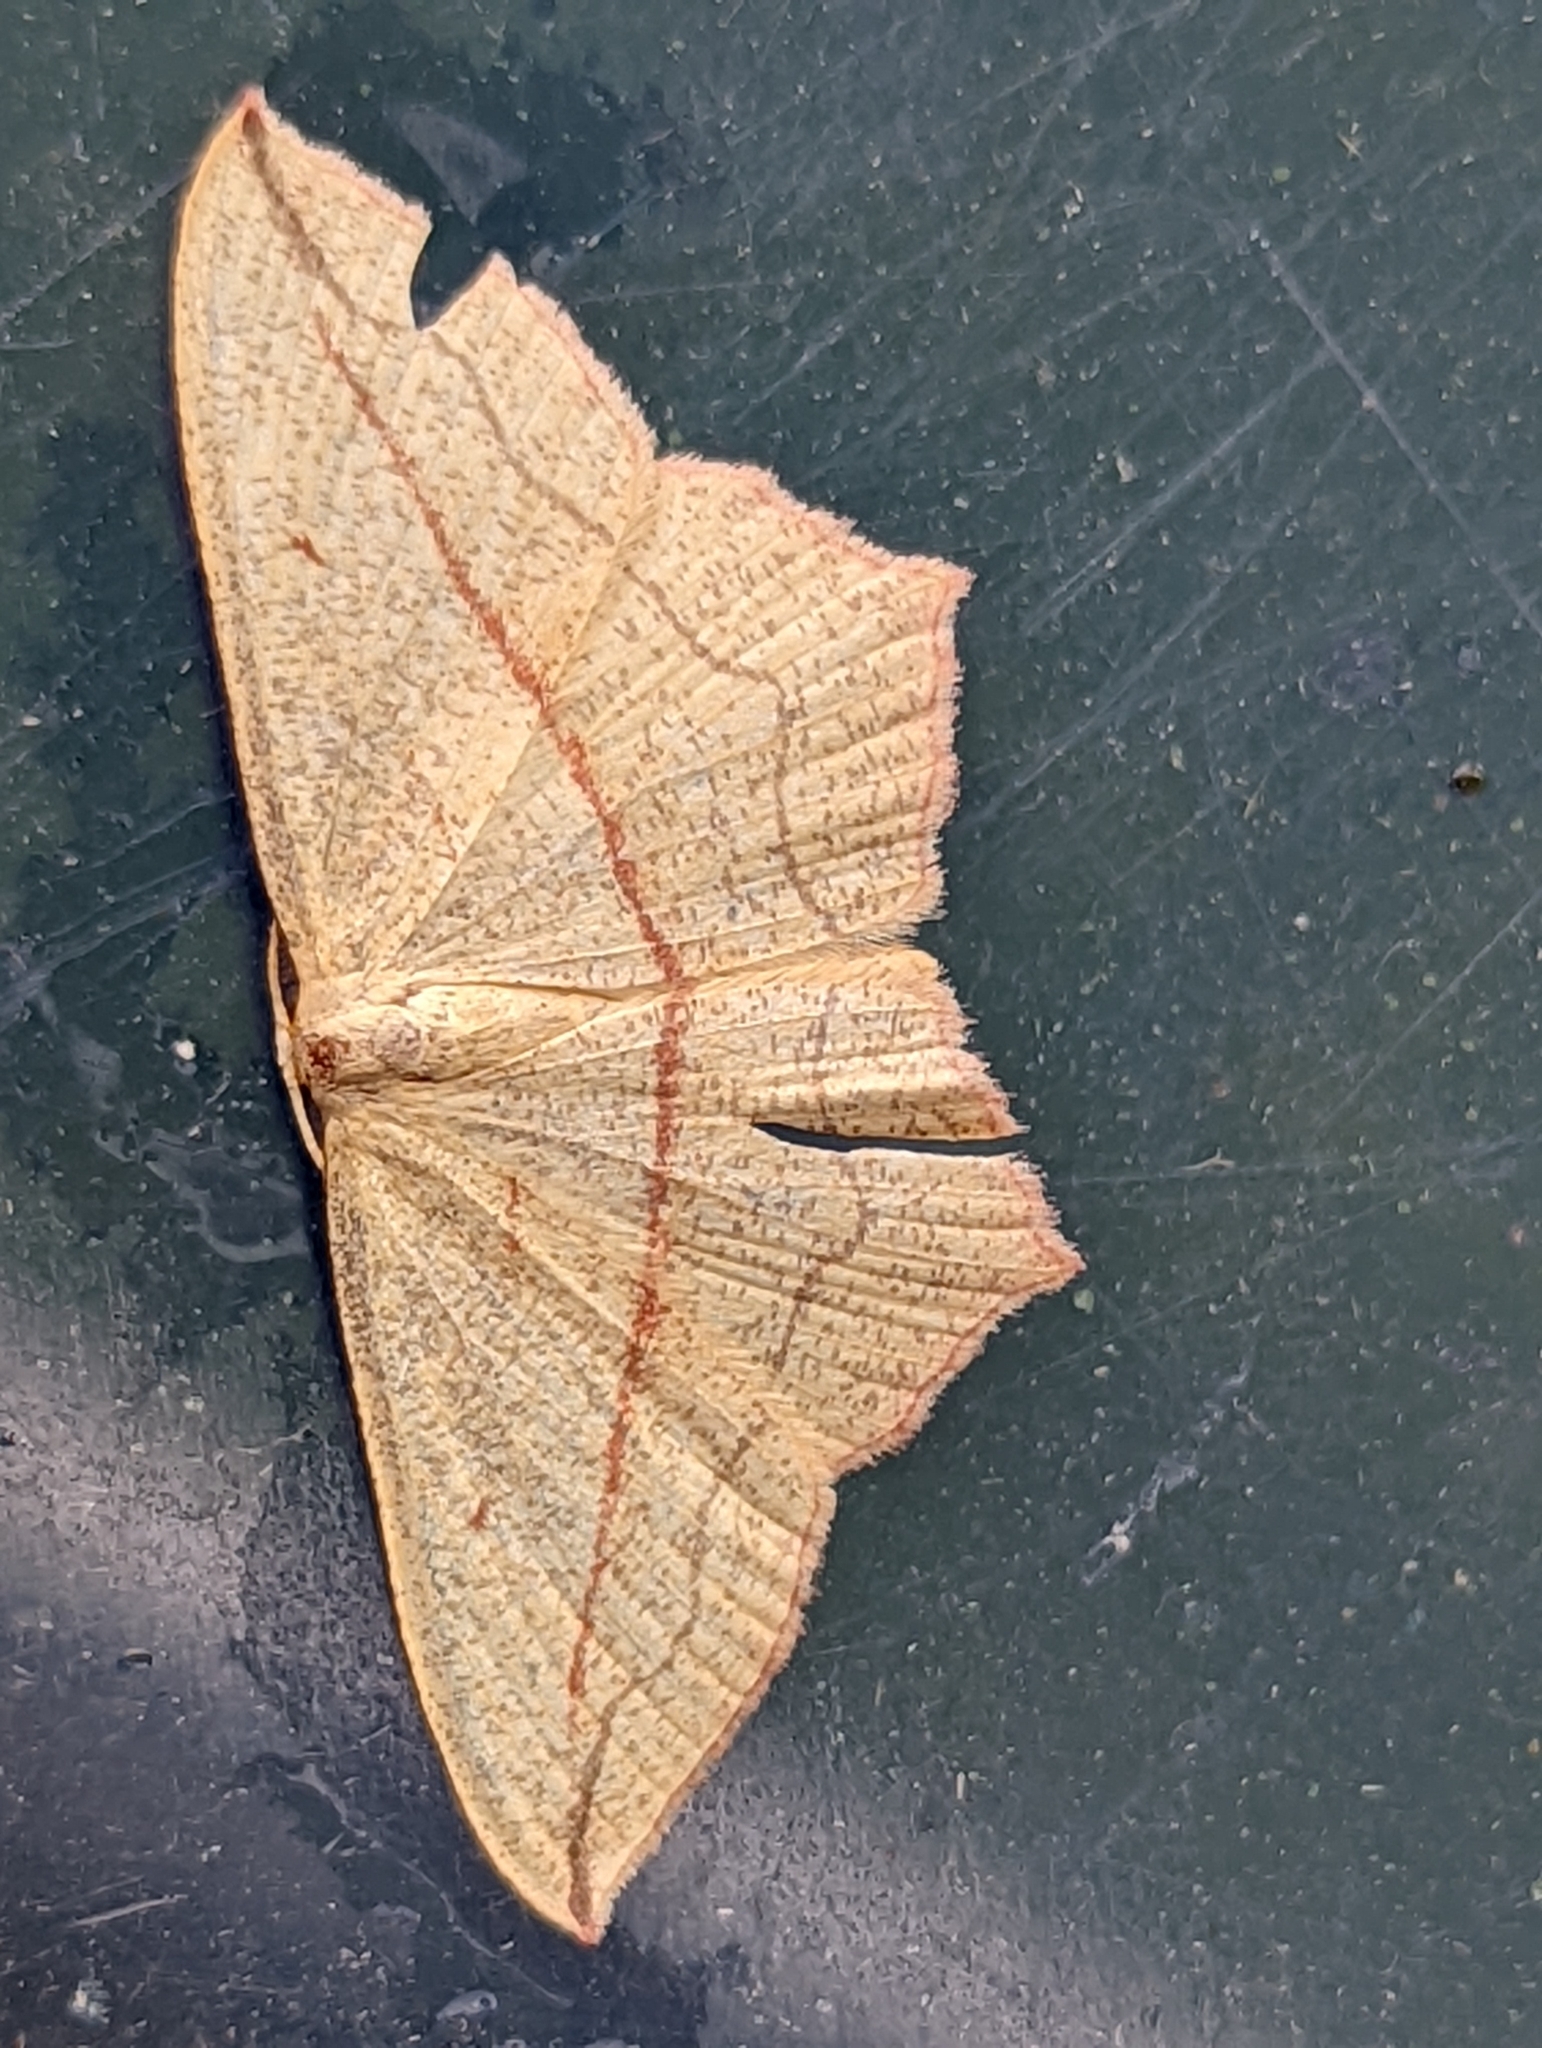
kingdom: Animalia
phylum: Arthropoda
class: Insecta
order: Lepidoptera
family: Geometridae
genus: Timandra
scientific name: Timandra comae
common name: Blood-vein
